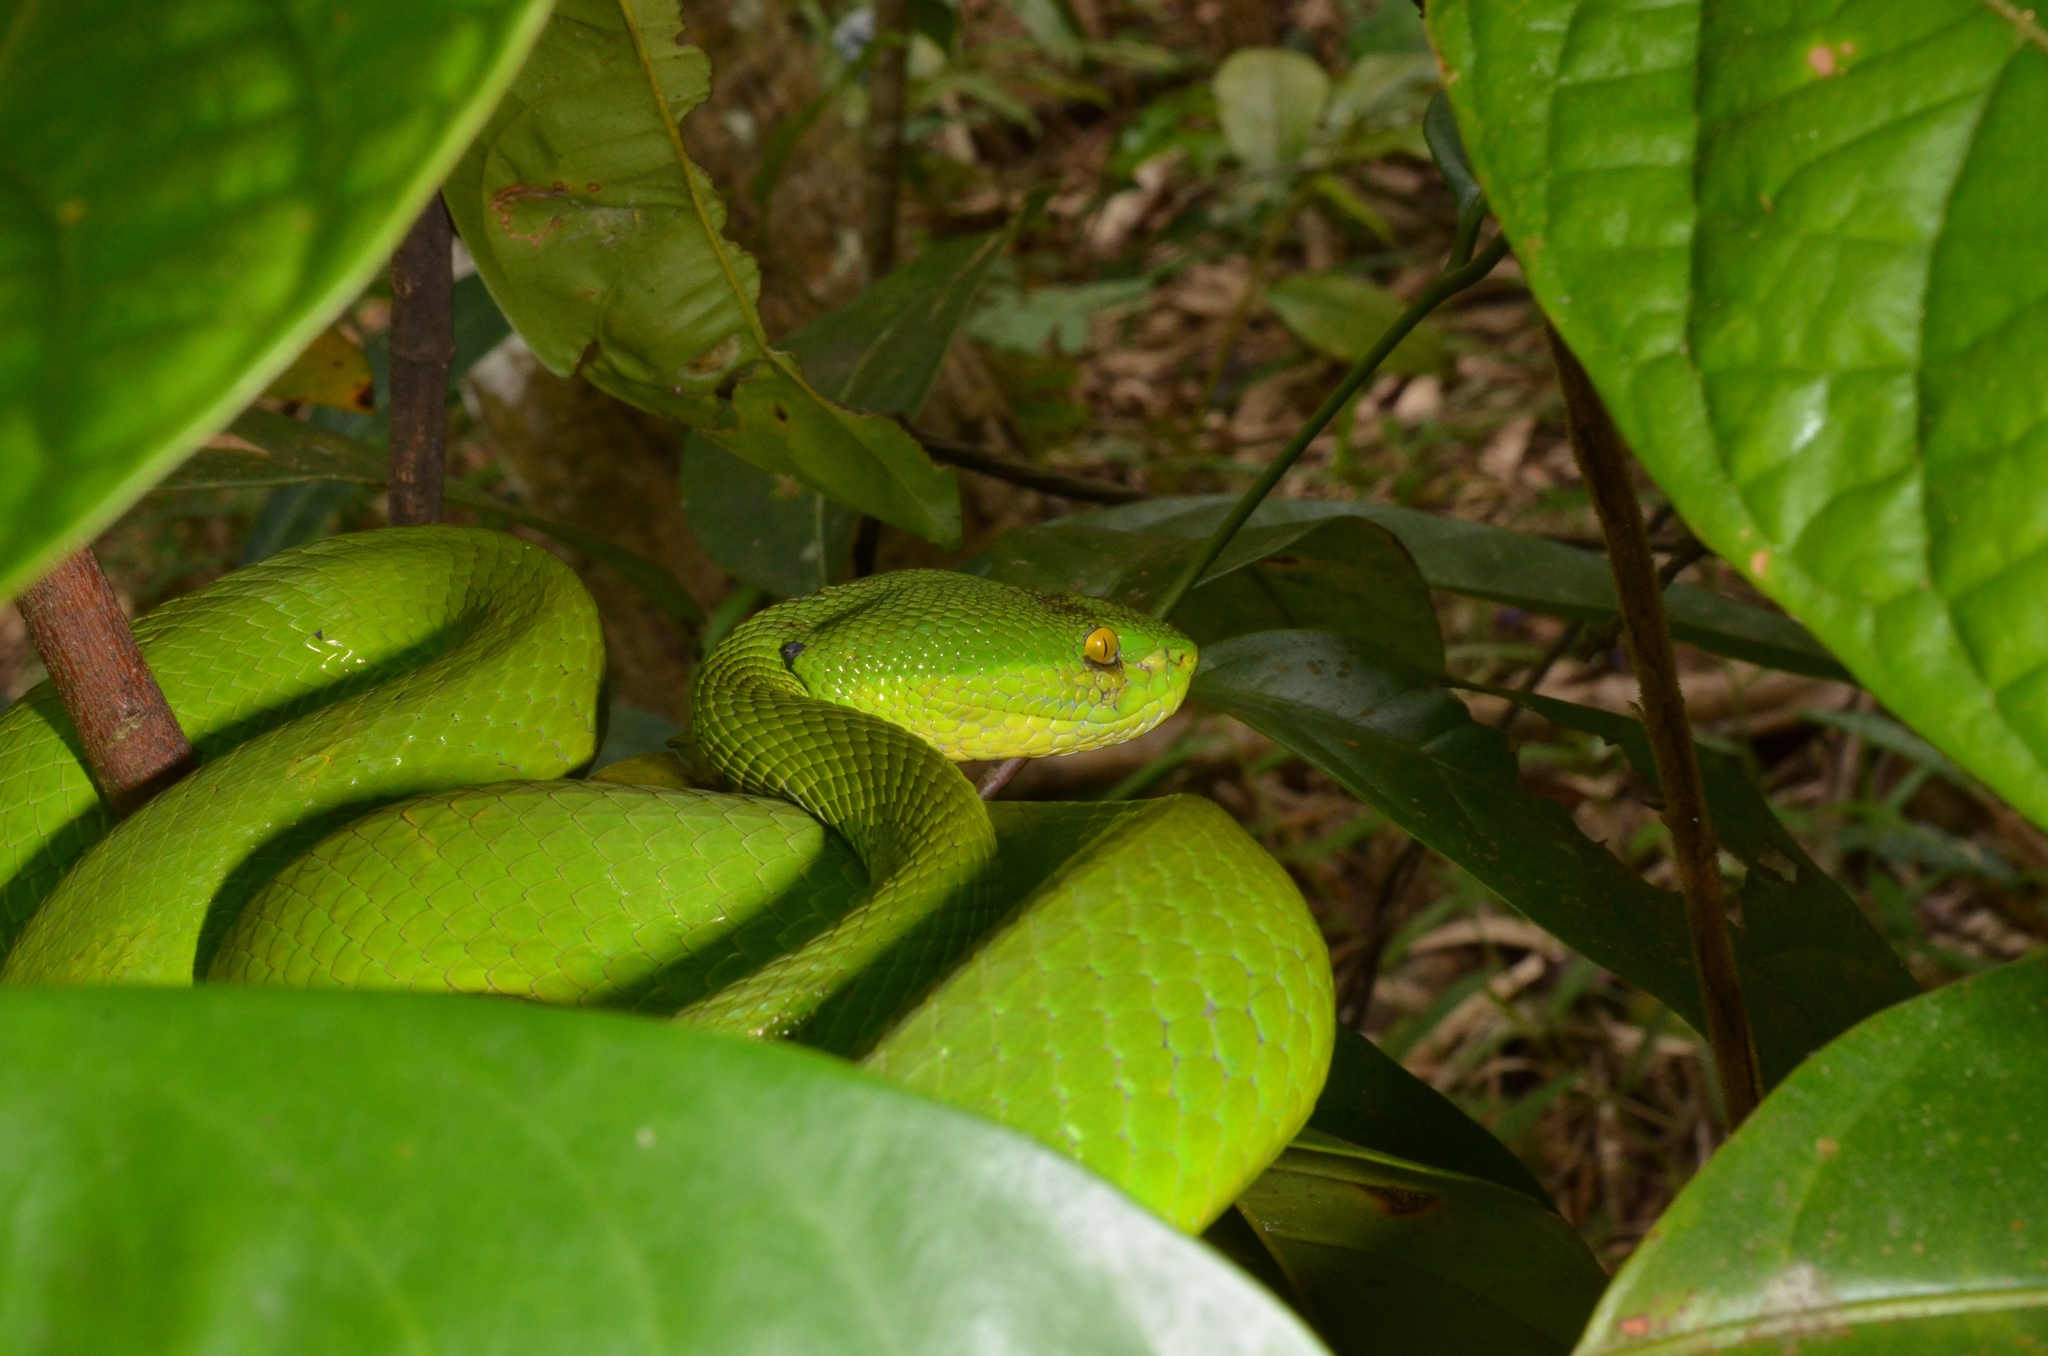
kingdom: Animalia
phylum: Chordata
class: Squamata
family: Viperidae
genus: Trimeresurus
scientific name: Trimeresurus albolabris
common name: White-lipped pitviper
